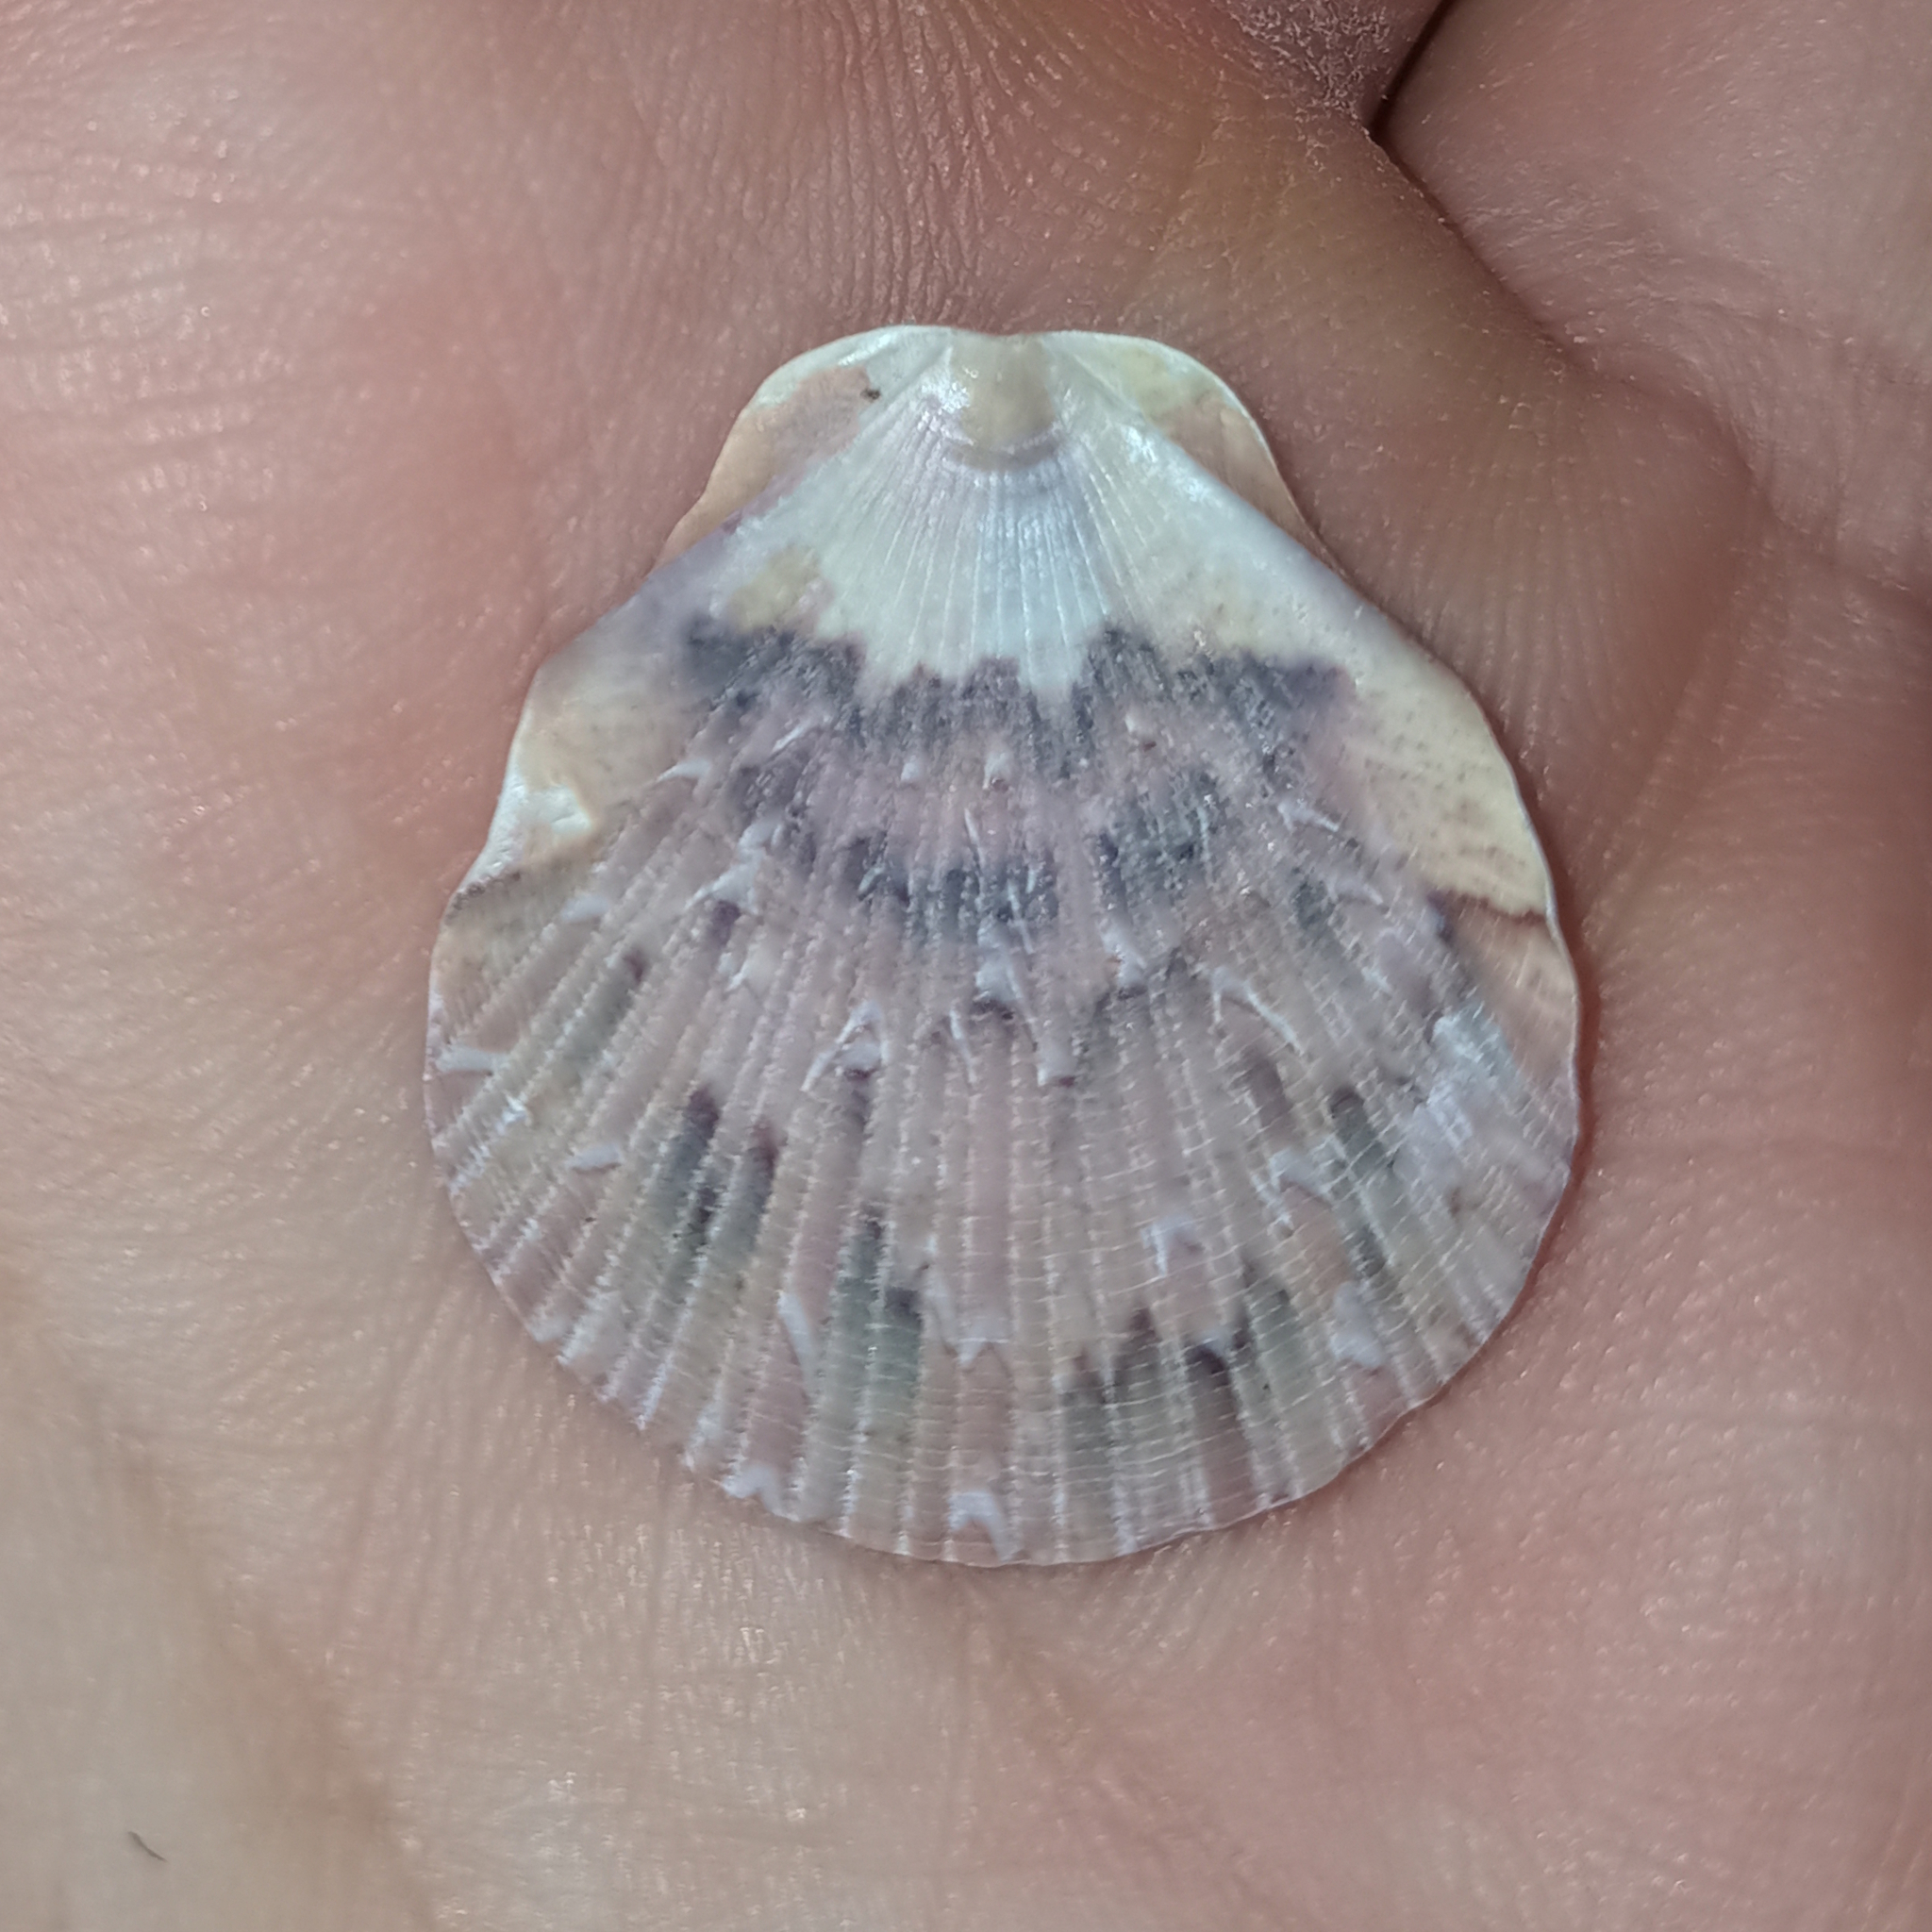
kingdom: Animalia
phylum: Mollusca
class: Bivalvia
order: Pectinida
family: Pectinidae
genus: Euvola
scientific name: Euvola ziczac
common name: Zigzag scallop
